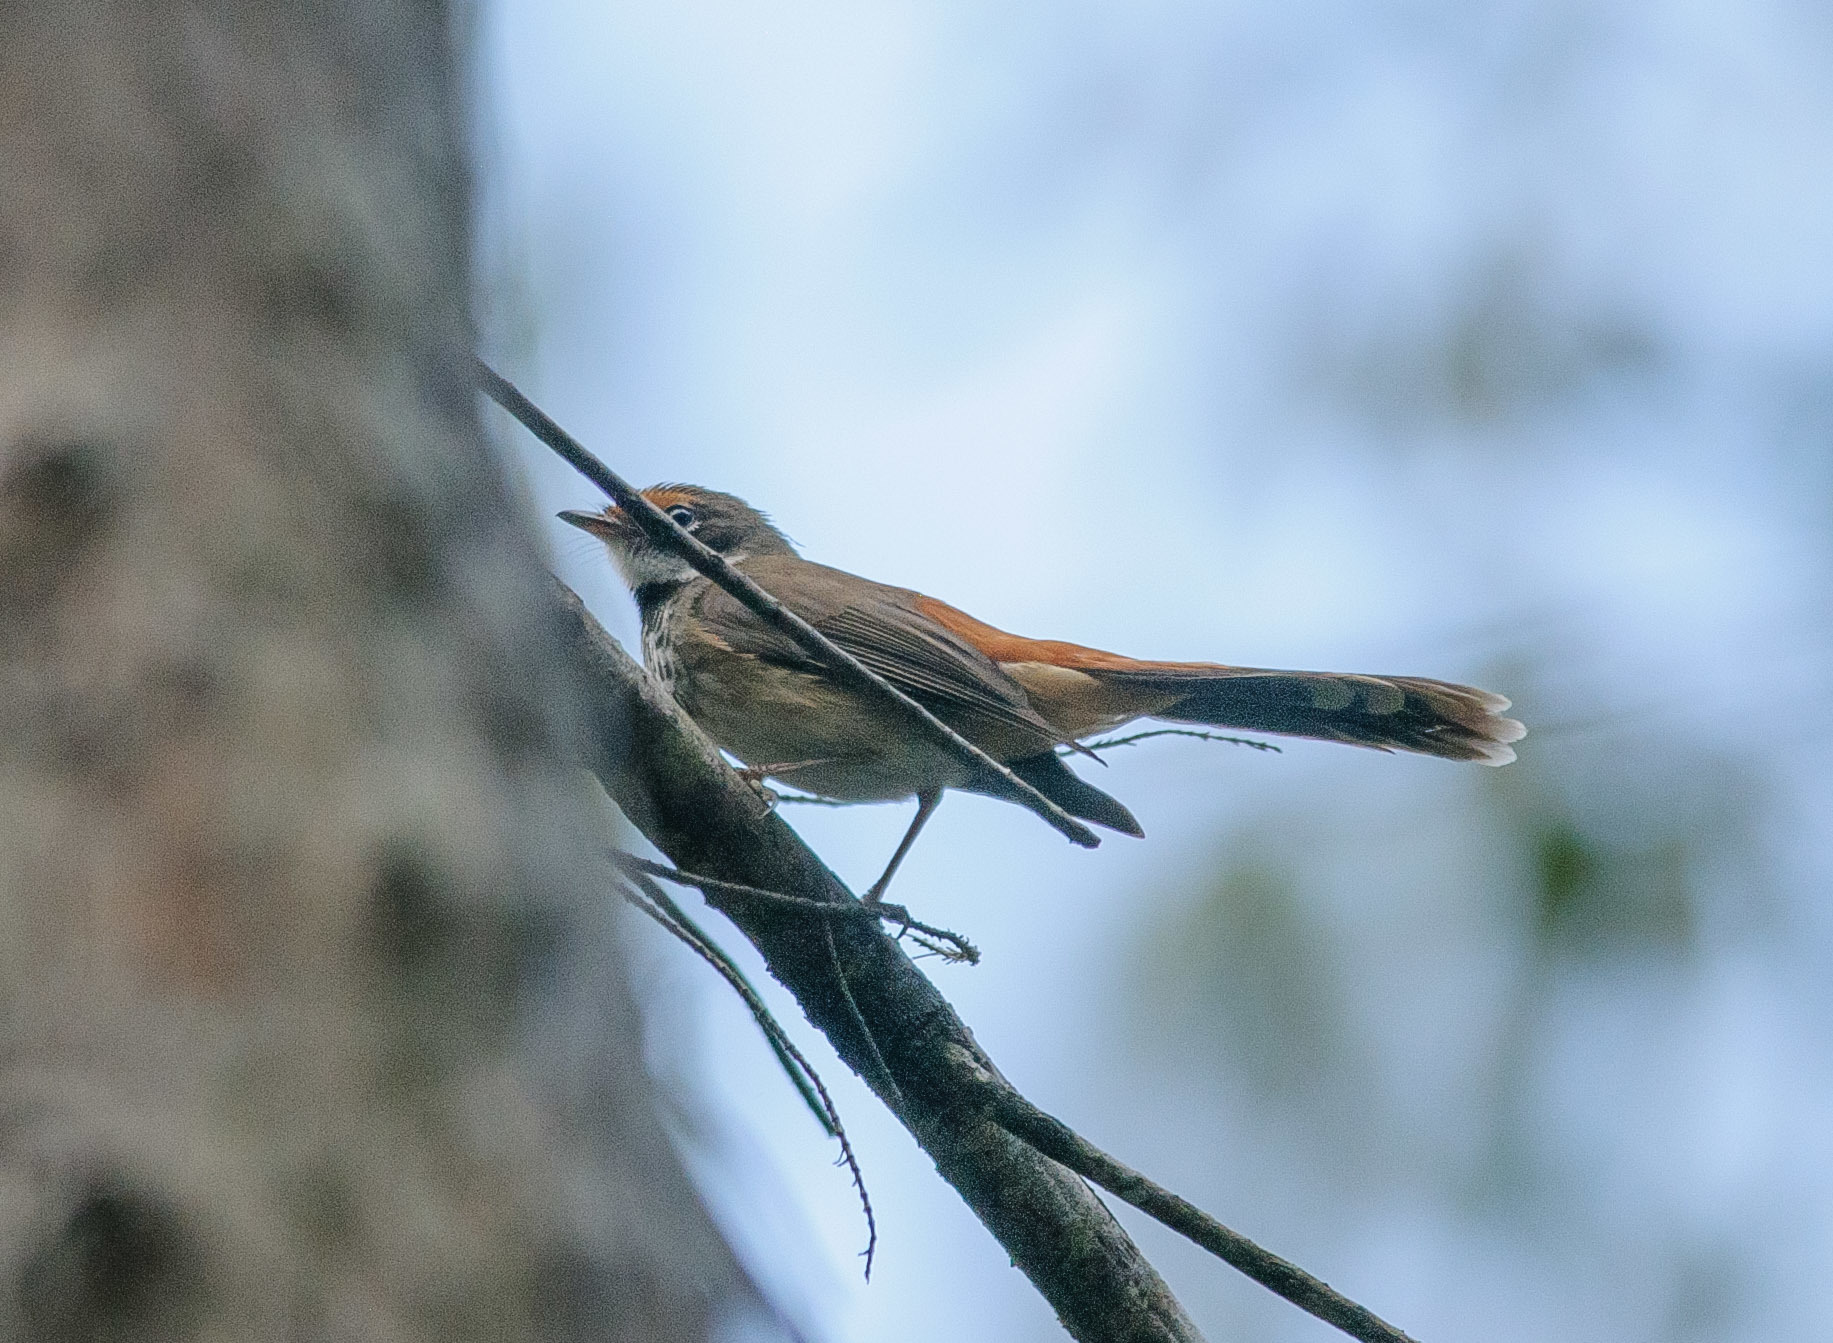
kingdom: Animalia
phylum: Chordata
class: Aves
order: Passeriformes
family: Rhipiduridae
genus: Rhipidura
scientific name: Rhipidura rufifrons
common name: Rufous fantail
